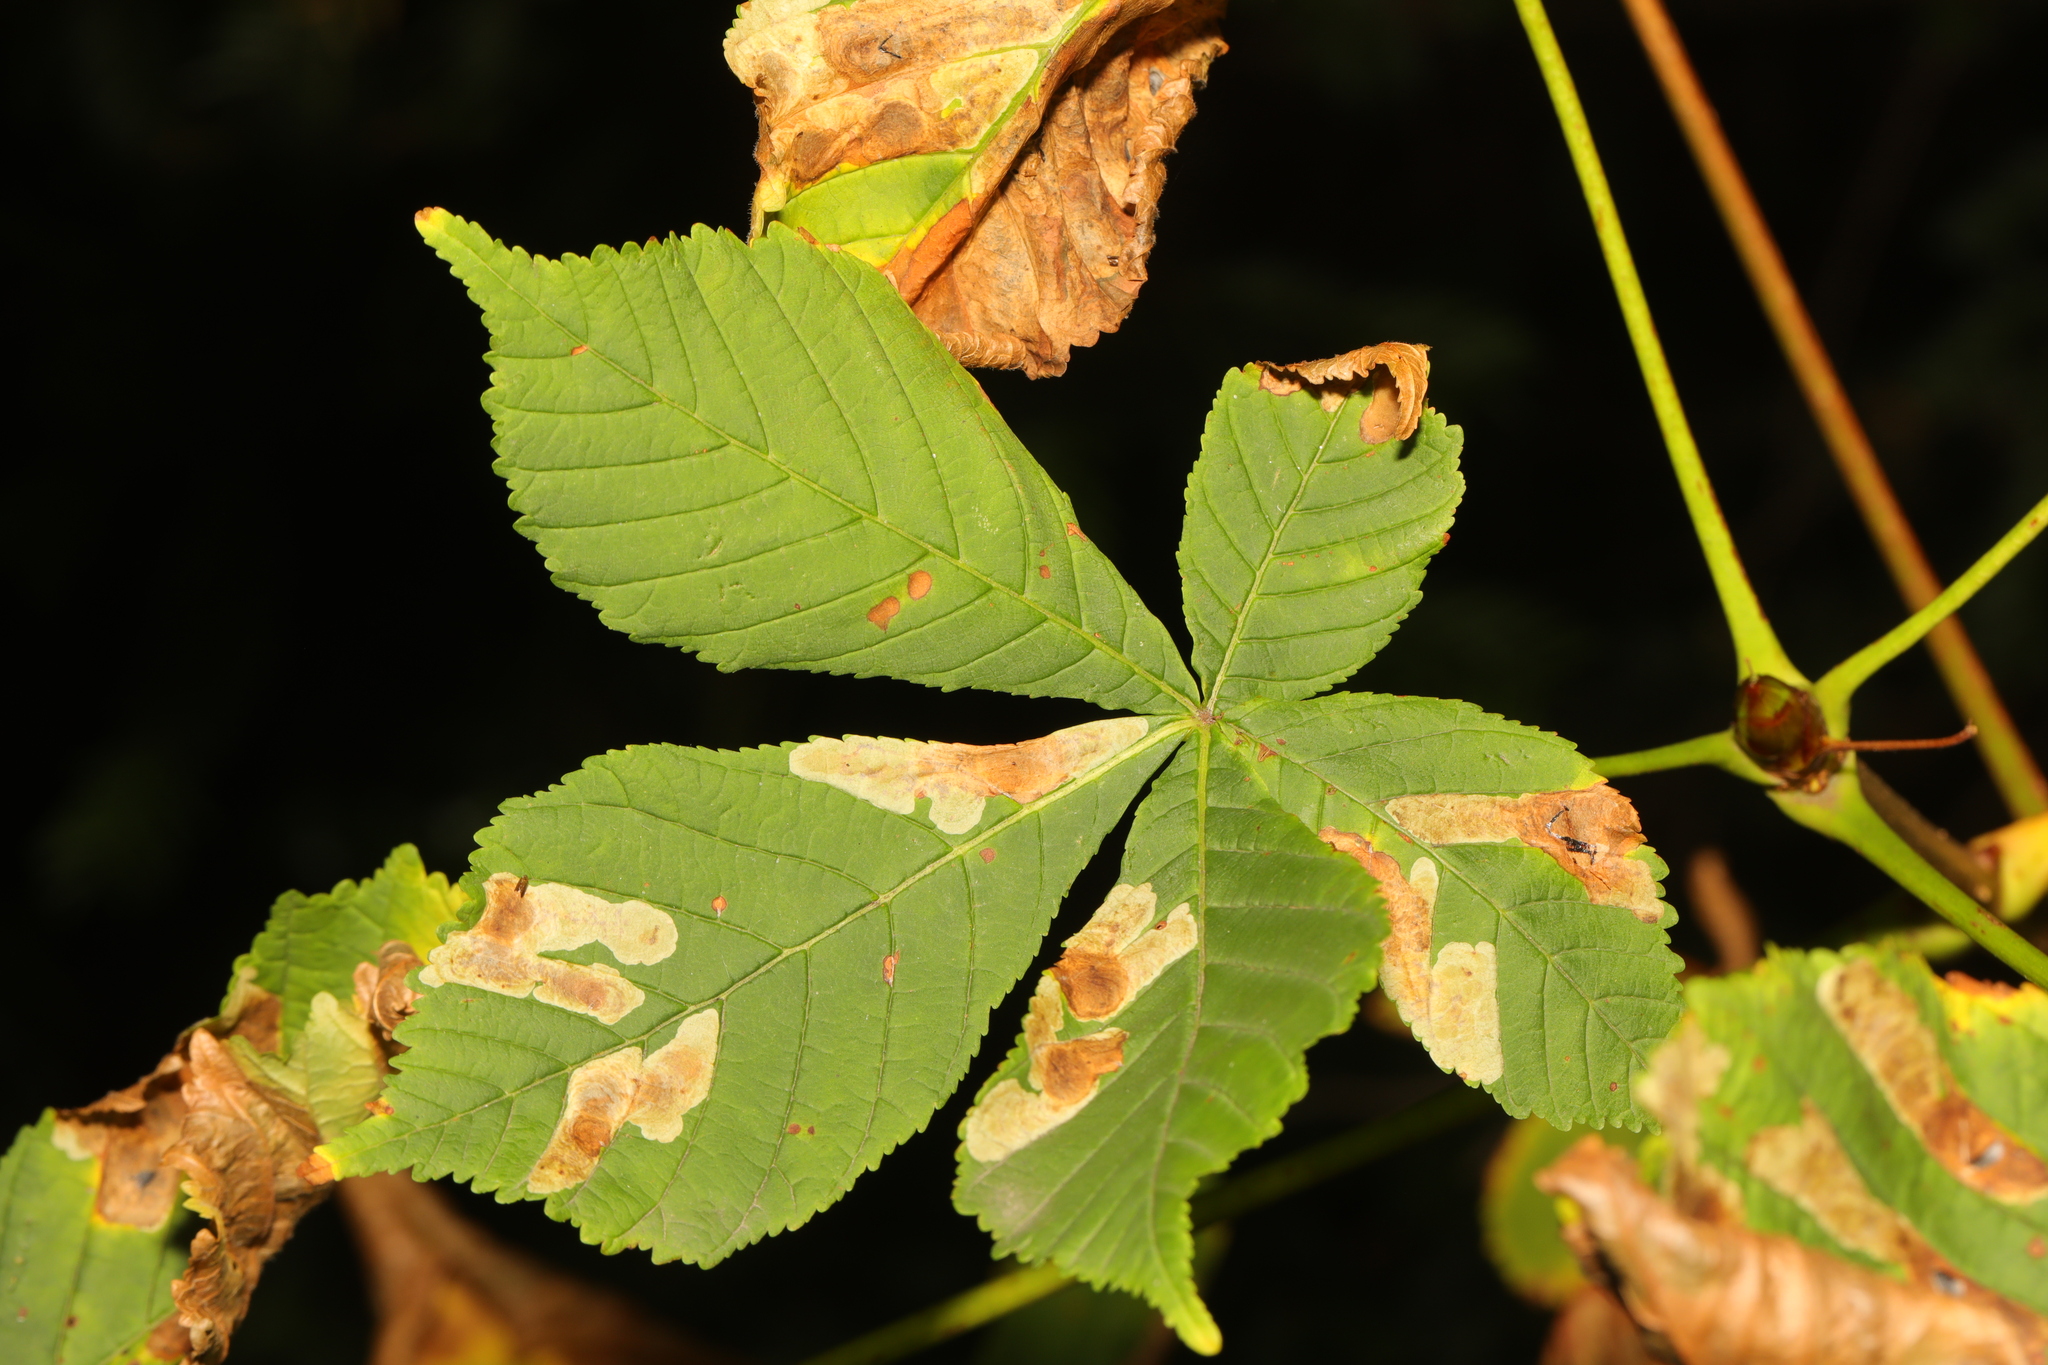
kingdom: Plantae
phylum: Tracheophyta
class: Magnoliopsida
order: Sapindales
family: Sapindaceae
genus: Aesculus
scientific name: Aesculus hippocastanum
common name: Horse-chestnut
